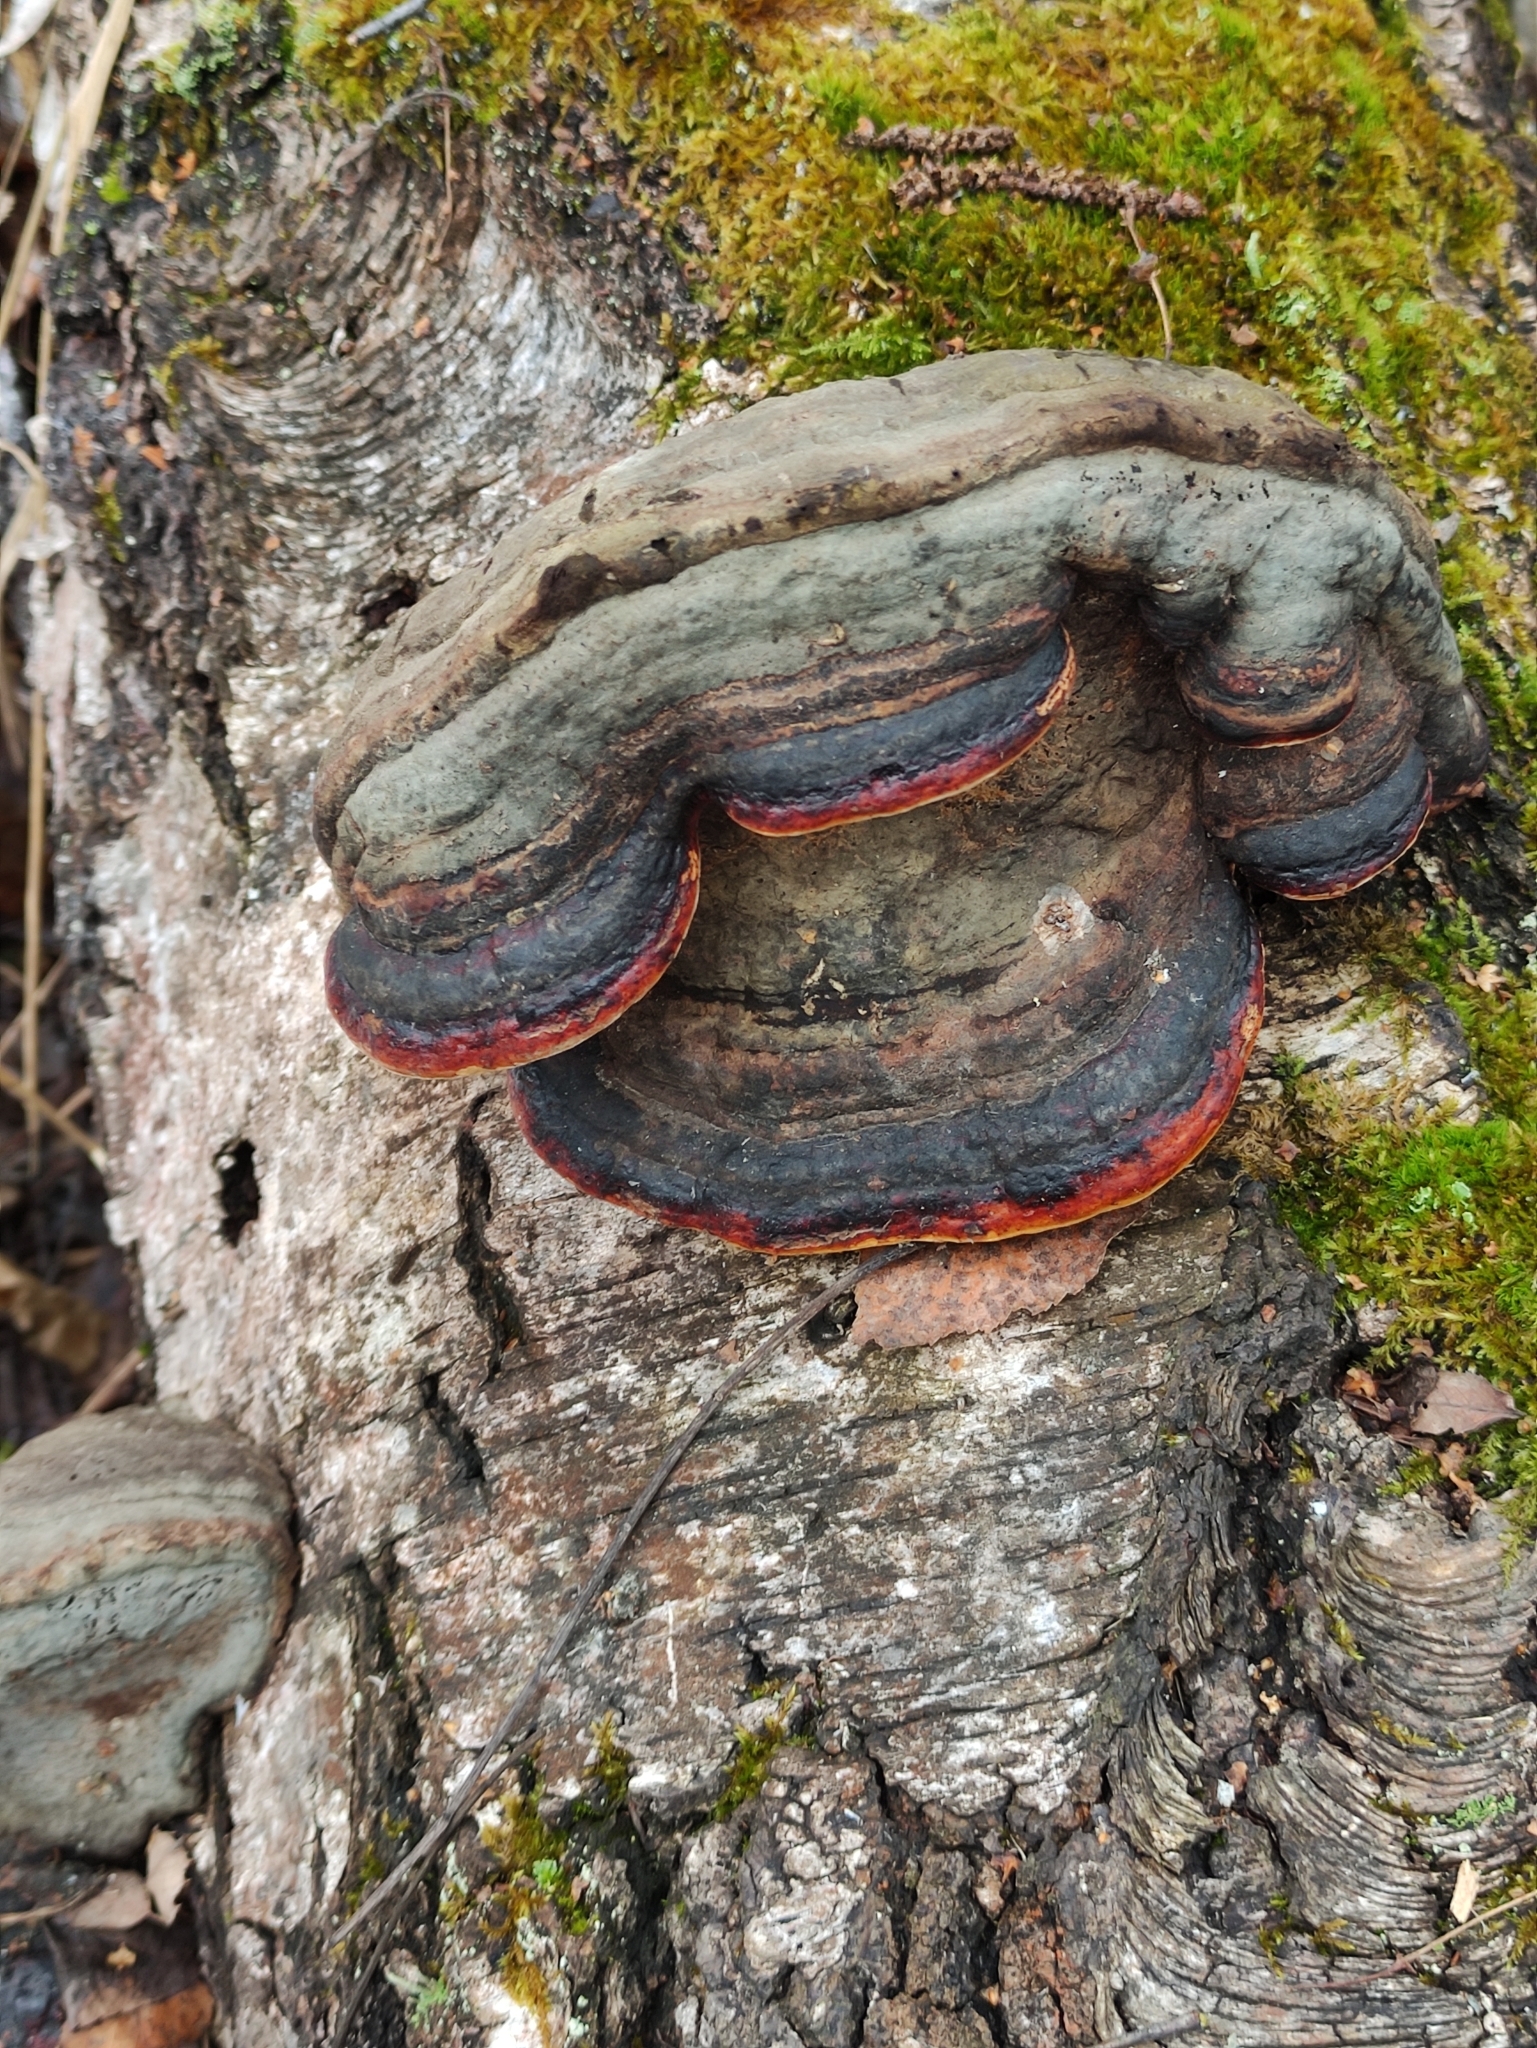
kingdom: Fungi
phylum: Basidiomycota
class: Agaricomycetes
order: Polyporales
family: Fomitopsidaceae
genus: Fomitopsis
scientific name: Fomitopsis pinicola
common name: Red-belted bracket
